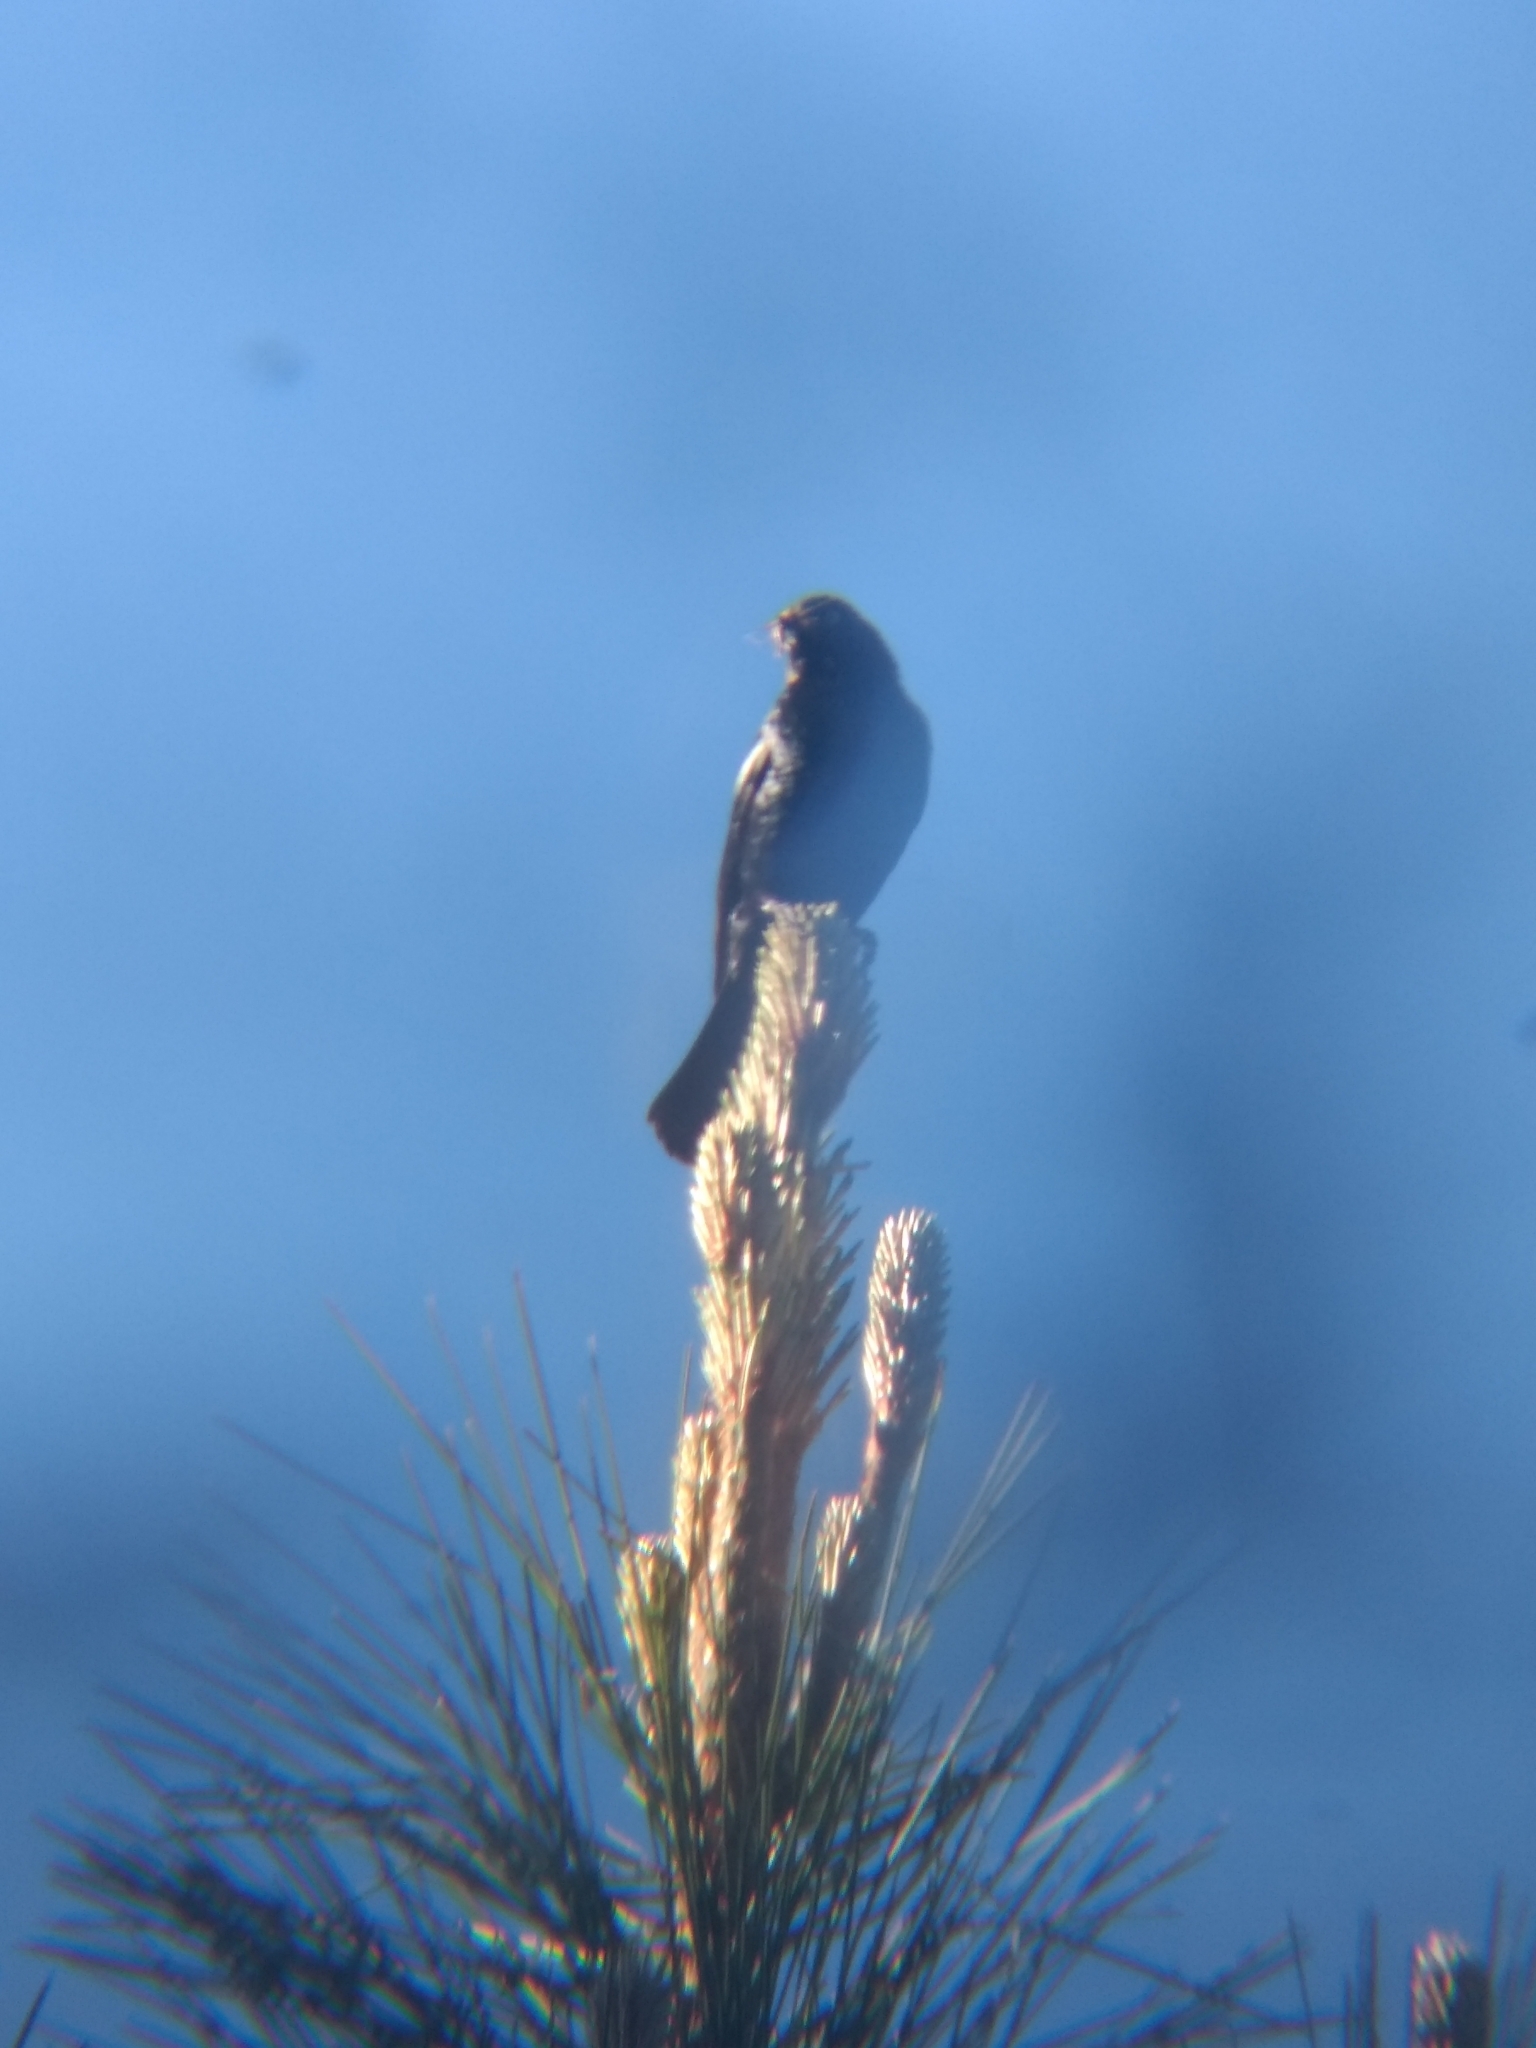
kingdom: Animalia
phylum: Chordata
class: Aves
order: Passeriformes
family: Icteridae
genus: Euphagus
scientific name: Euphagus cyanocephalus
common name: Brewer's blackbird
